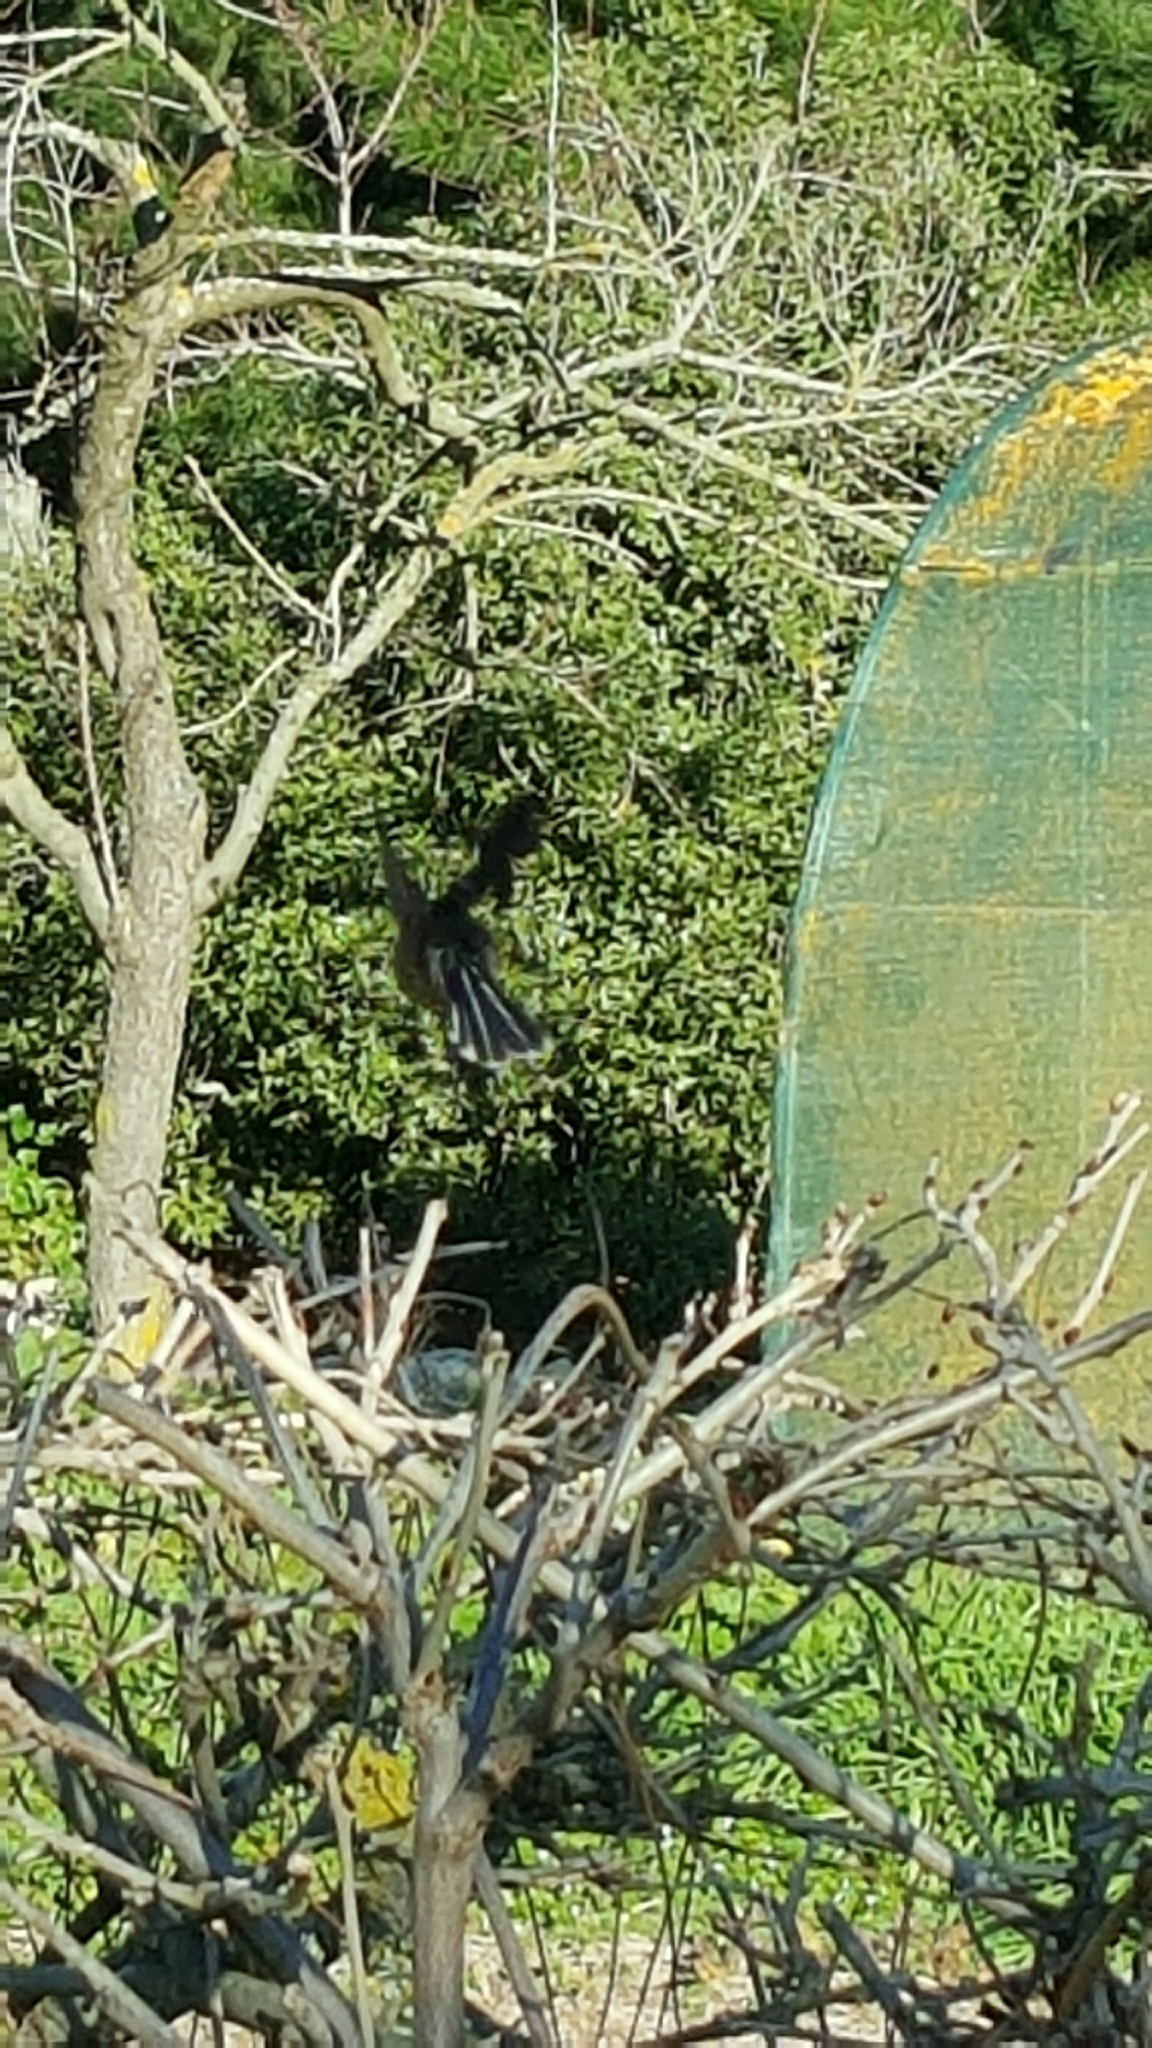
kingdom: Animalia
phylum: Chordata
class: Aves
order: Passeriformes
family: Rhipiduridae
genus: Rhipidura
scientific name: Rhipidura fuliginosa
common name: New zealand fantail
